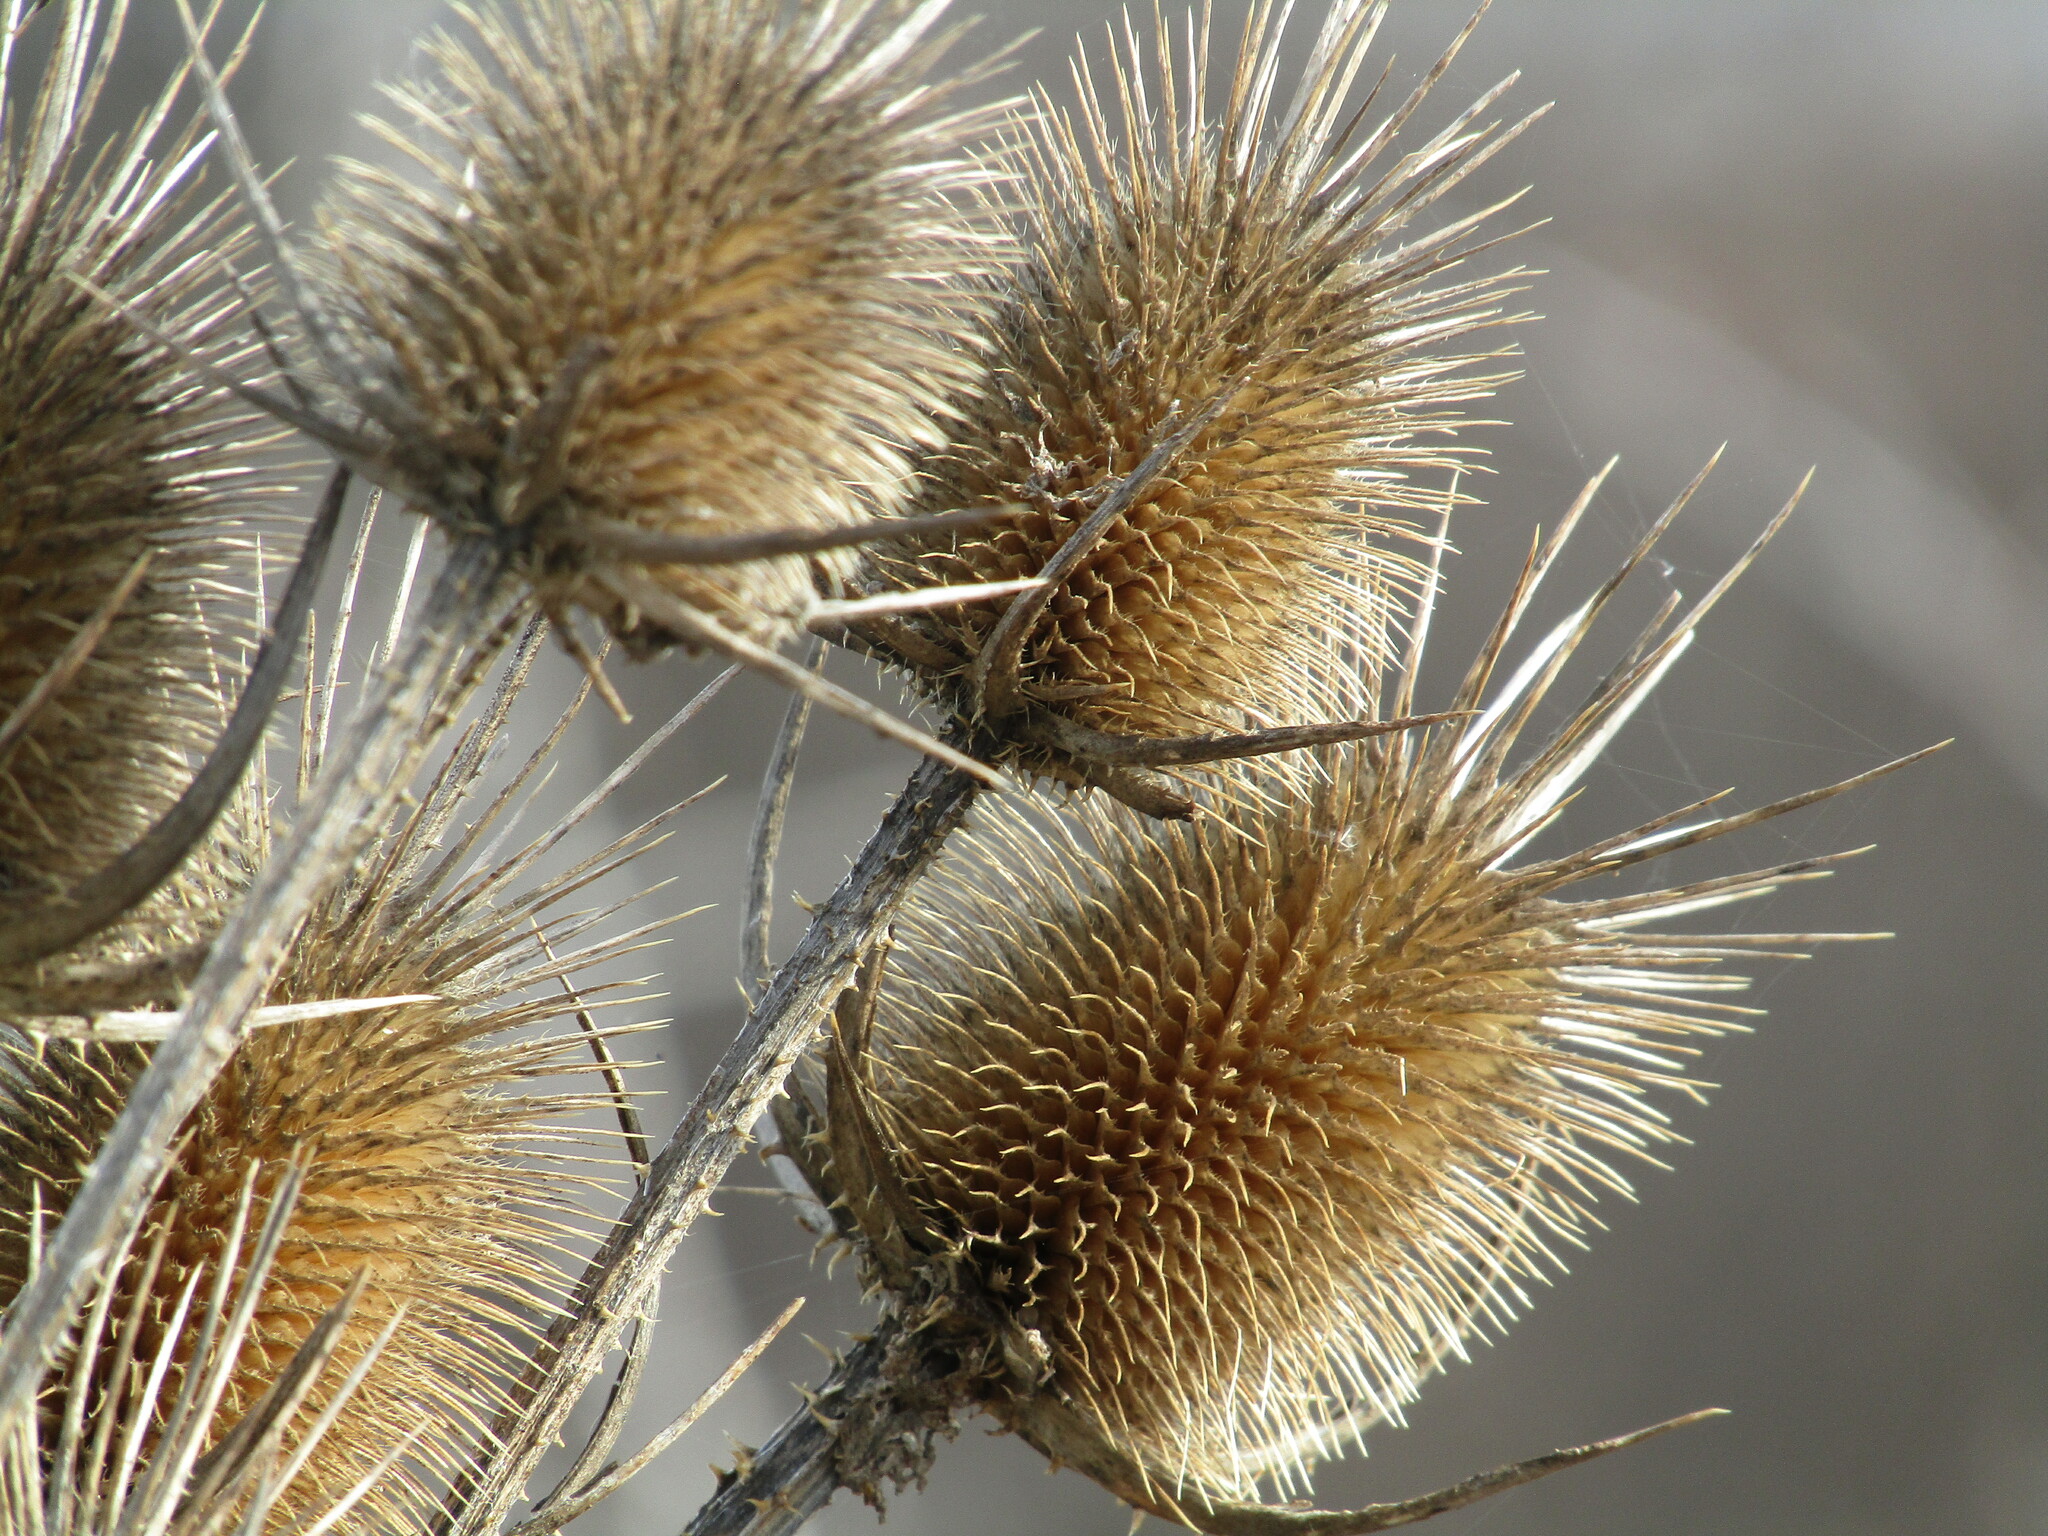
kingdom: Plantae
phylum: Tracheophyta
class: Magnoliopsida
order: Dipsacales
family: Caprifoliaceae
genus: Dipsacus
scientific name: Dipsacus laciniatus
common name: Cut-leaved teasel
